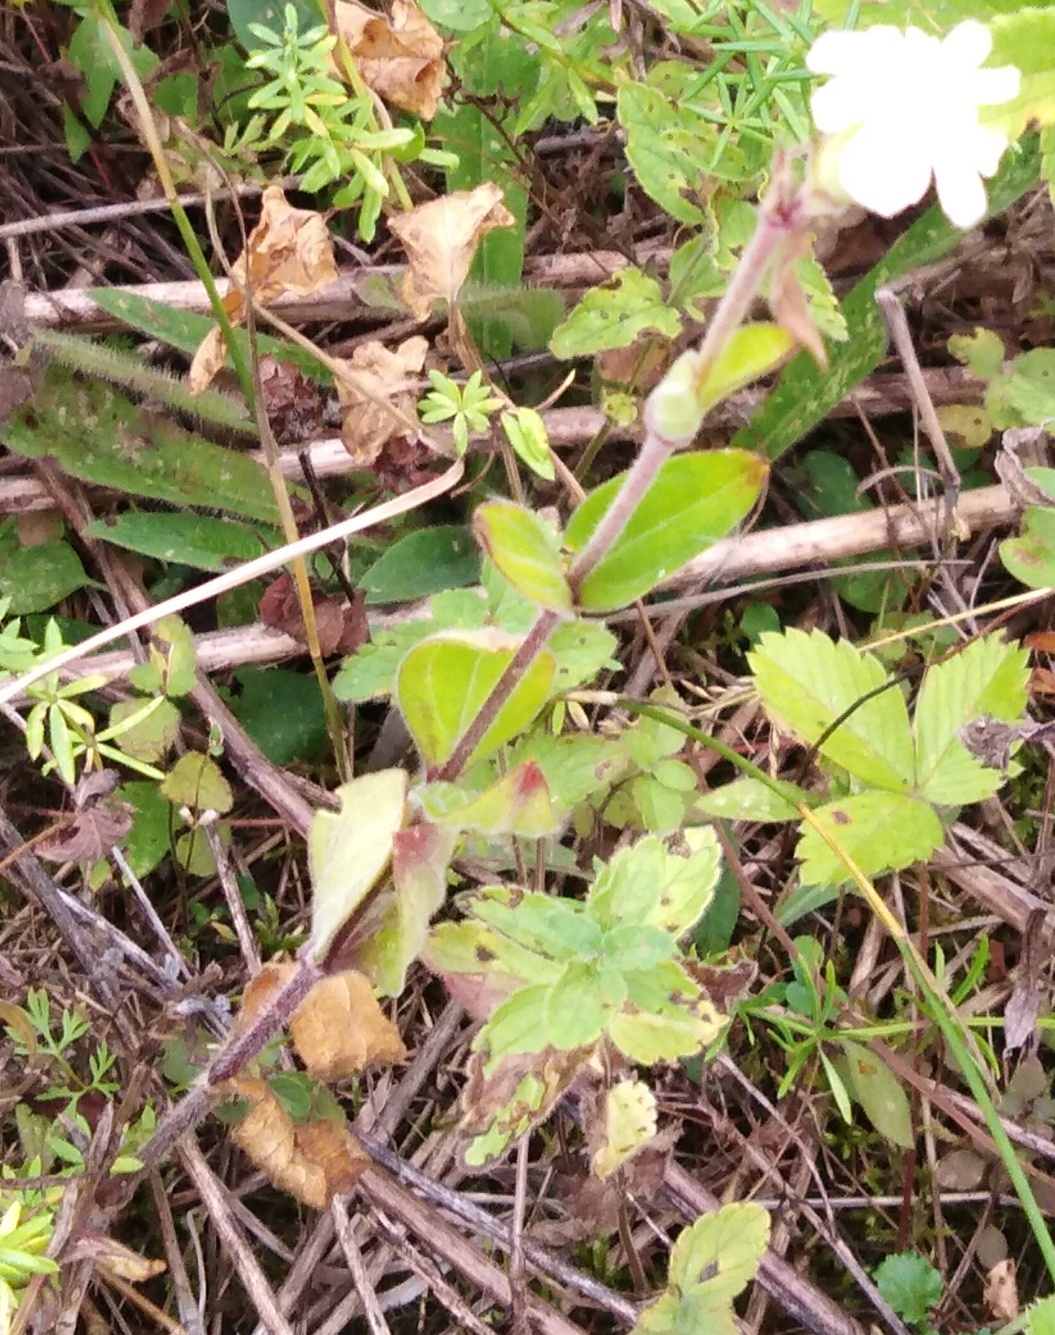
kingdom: Plantae
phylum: Tracheophyta
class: Magnoliopsida
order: Caryophyllales
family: Caryophyllaceae
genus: Silene
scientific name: Silene latifolia
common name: White campion
